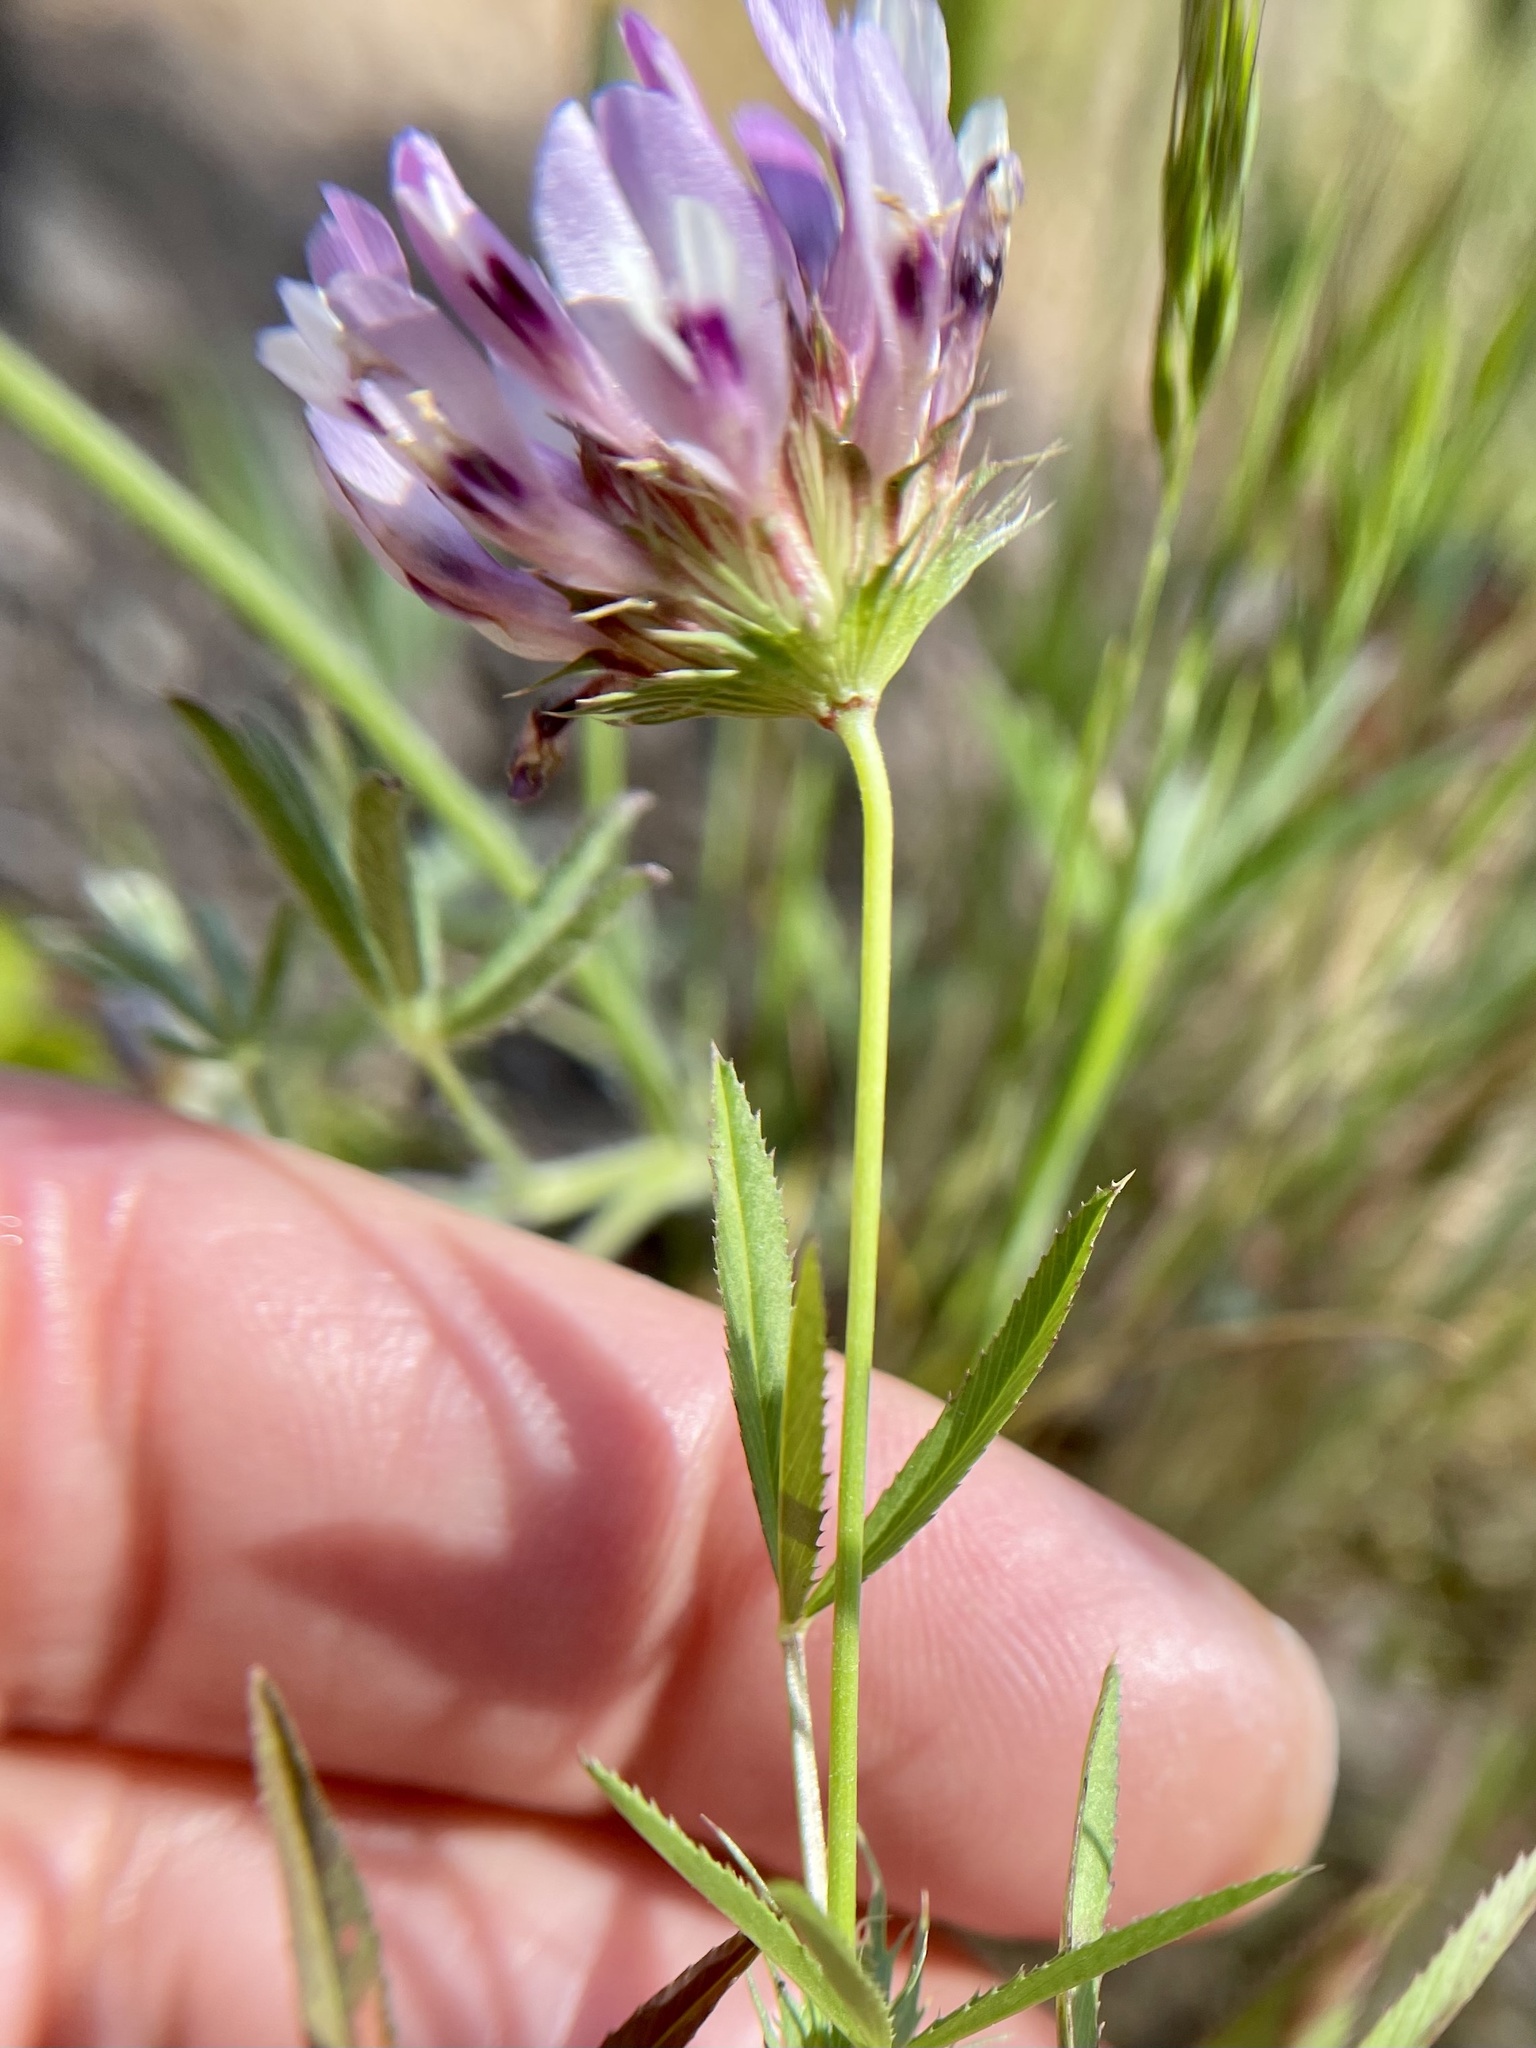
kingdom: Plantae
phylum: Tracheophyta
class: Magnoliopsida
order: Fabales
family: Fabaceae
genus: Trifolium
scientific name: Trifolium willdenovii
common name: Tomcat clover
